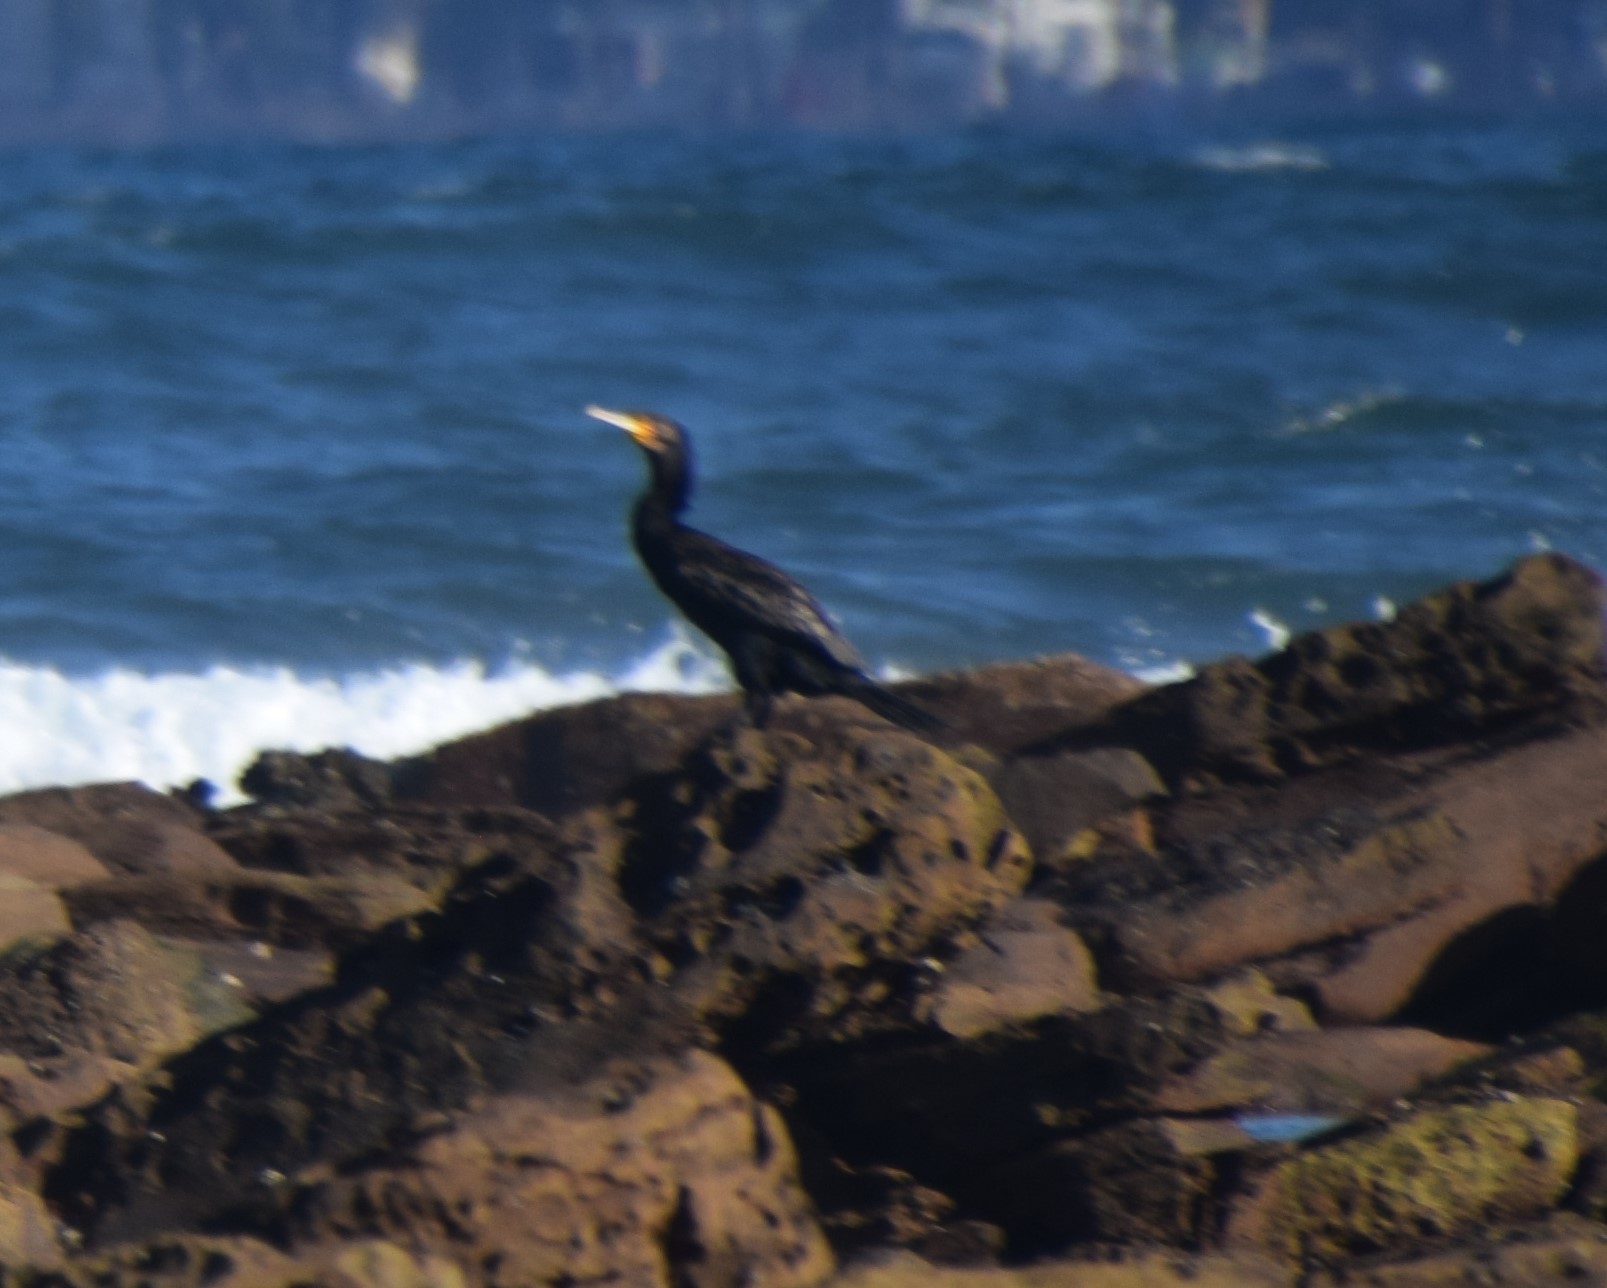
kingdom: Animalia
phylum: Chordata
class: Aves
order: Suliformes
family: Phalacrocoracidae
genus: Phalacrocorax
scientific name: Phalacrocorax carbo
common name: Great cormorant
